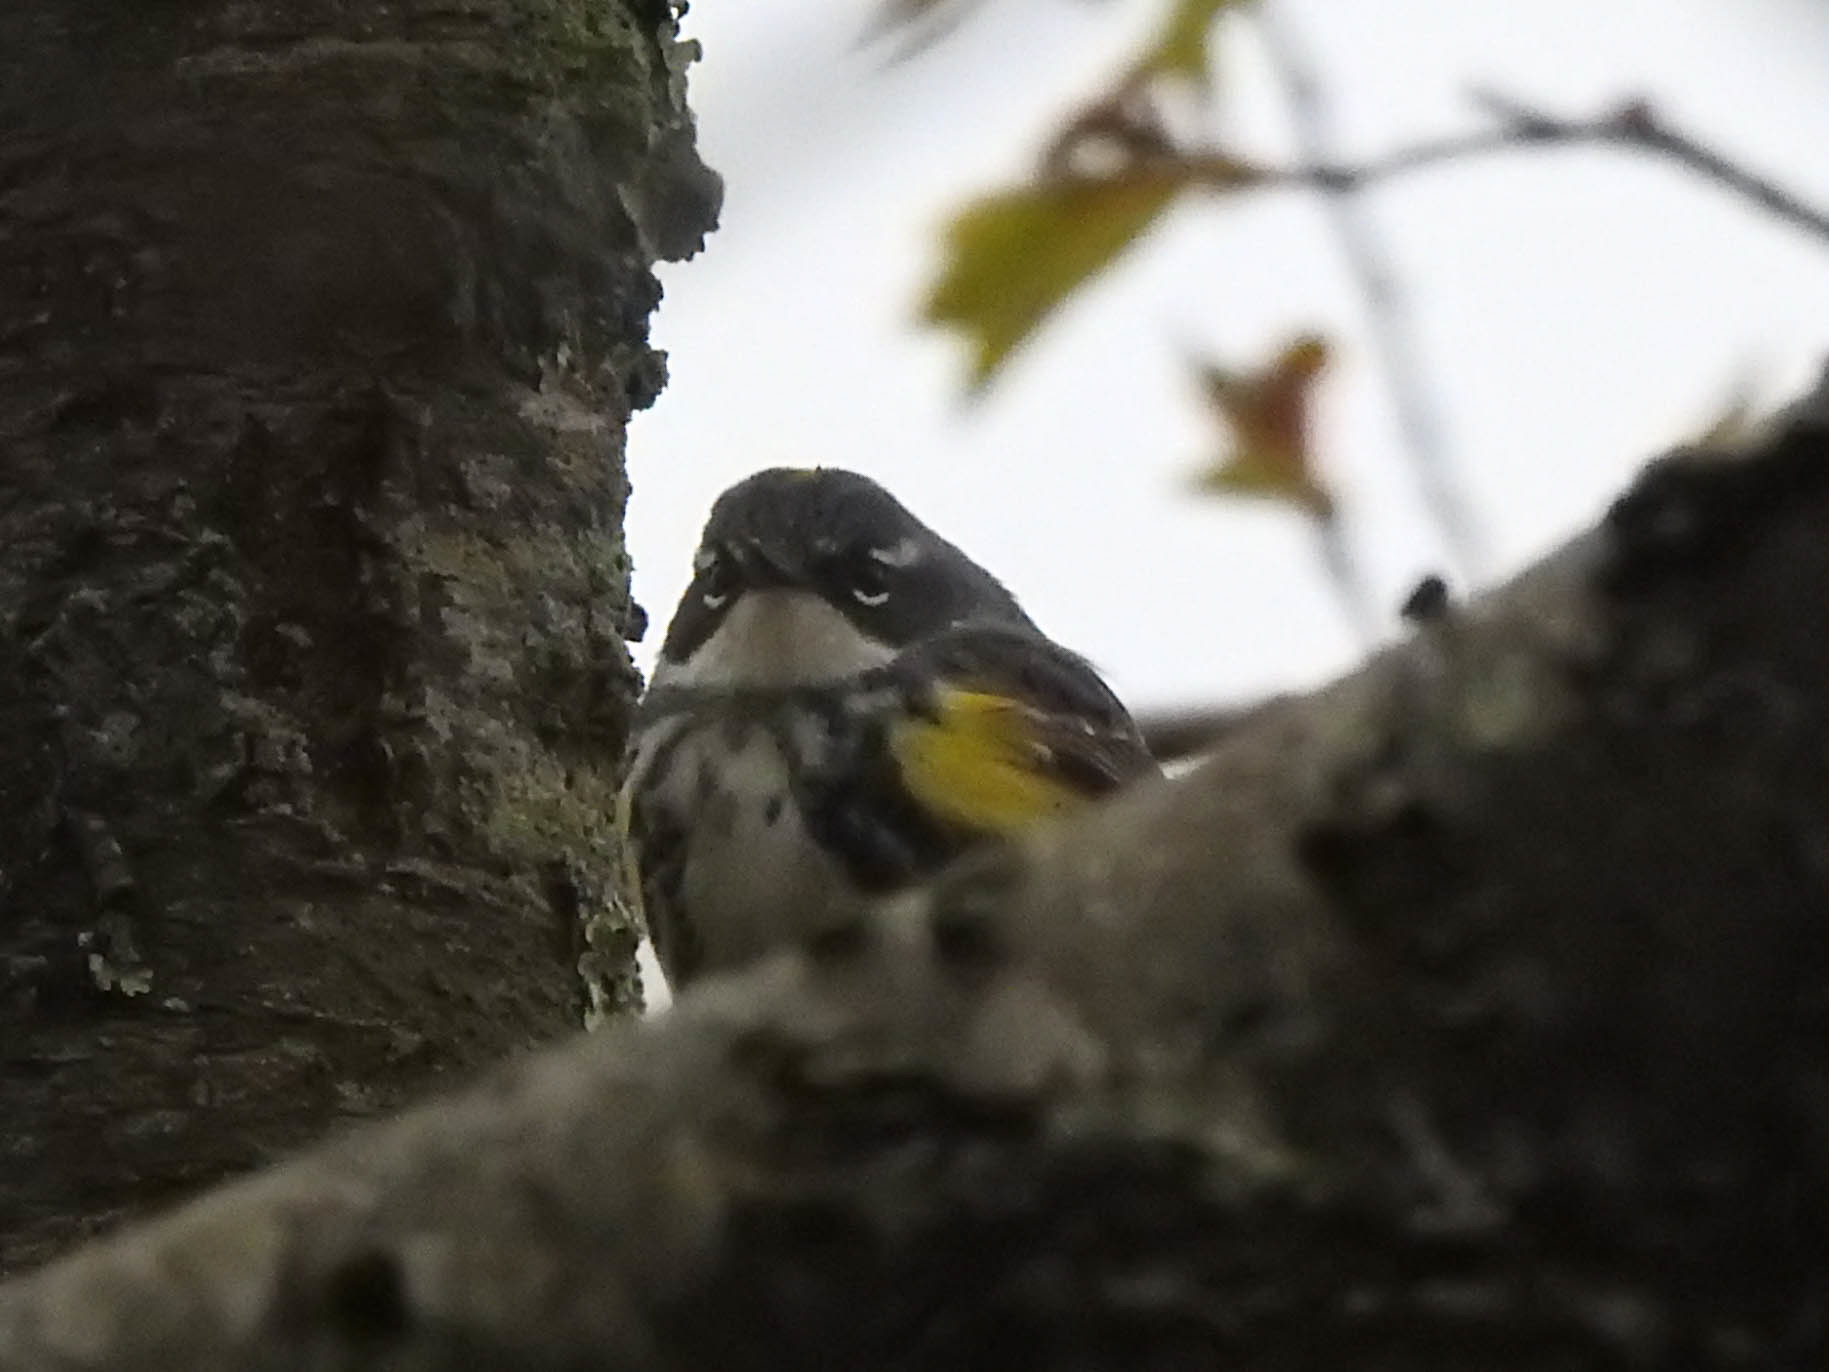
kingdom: Animalia
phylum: Chordata
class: Aves
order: Passeriformes
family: Parulidae
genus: Setophaga
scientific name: Setophaga coronata
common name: Myrtle warbler
